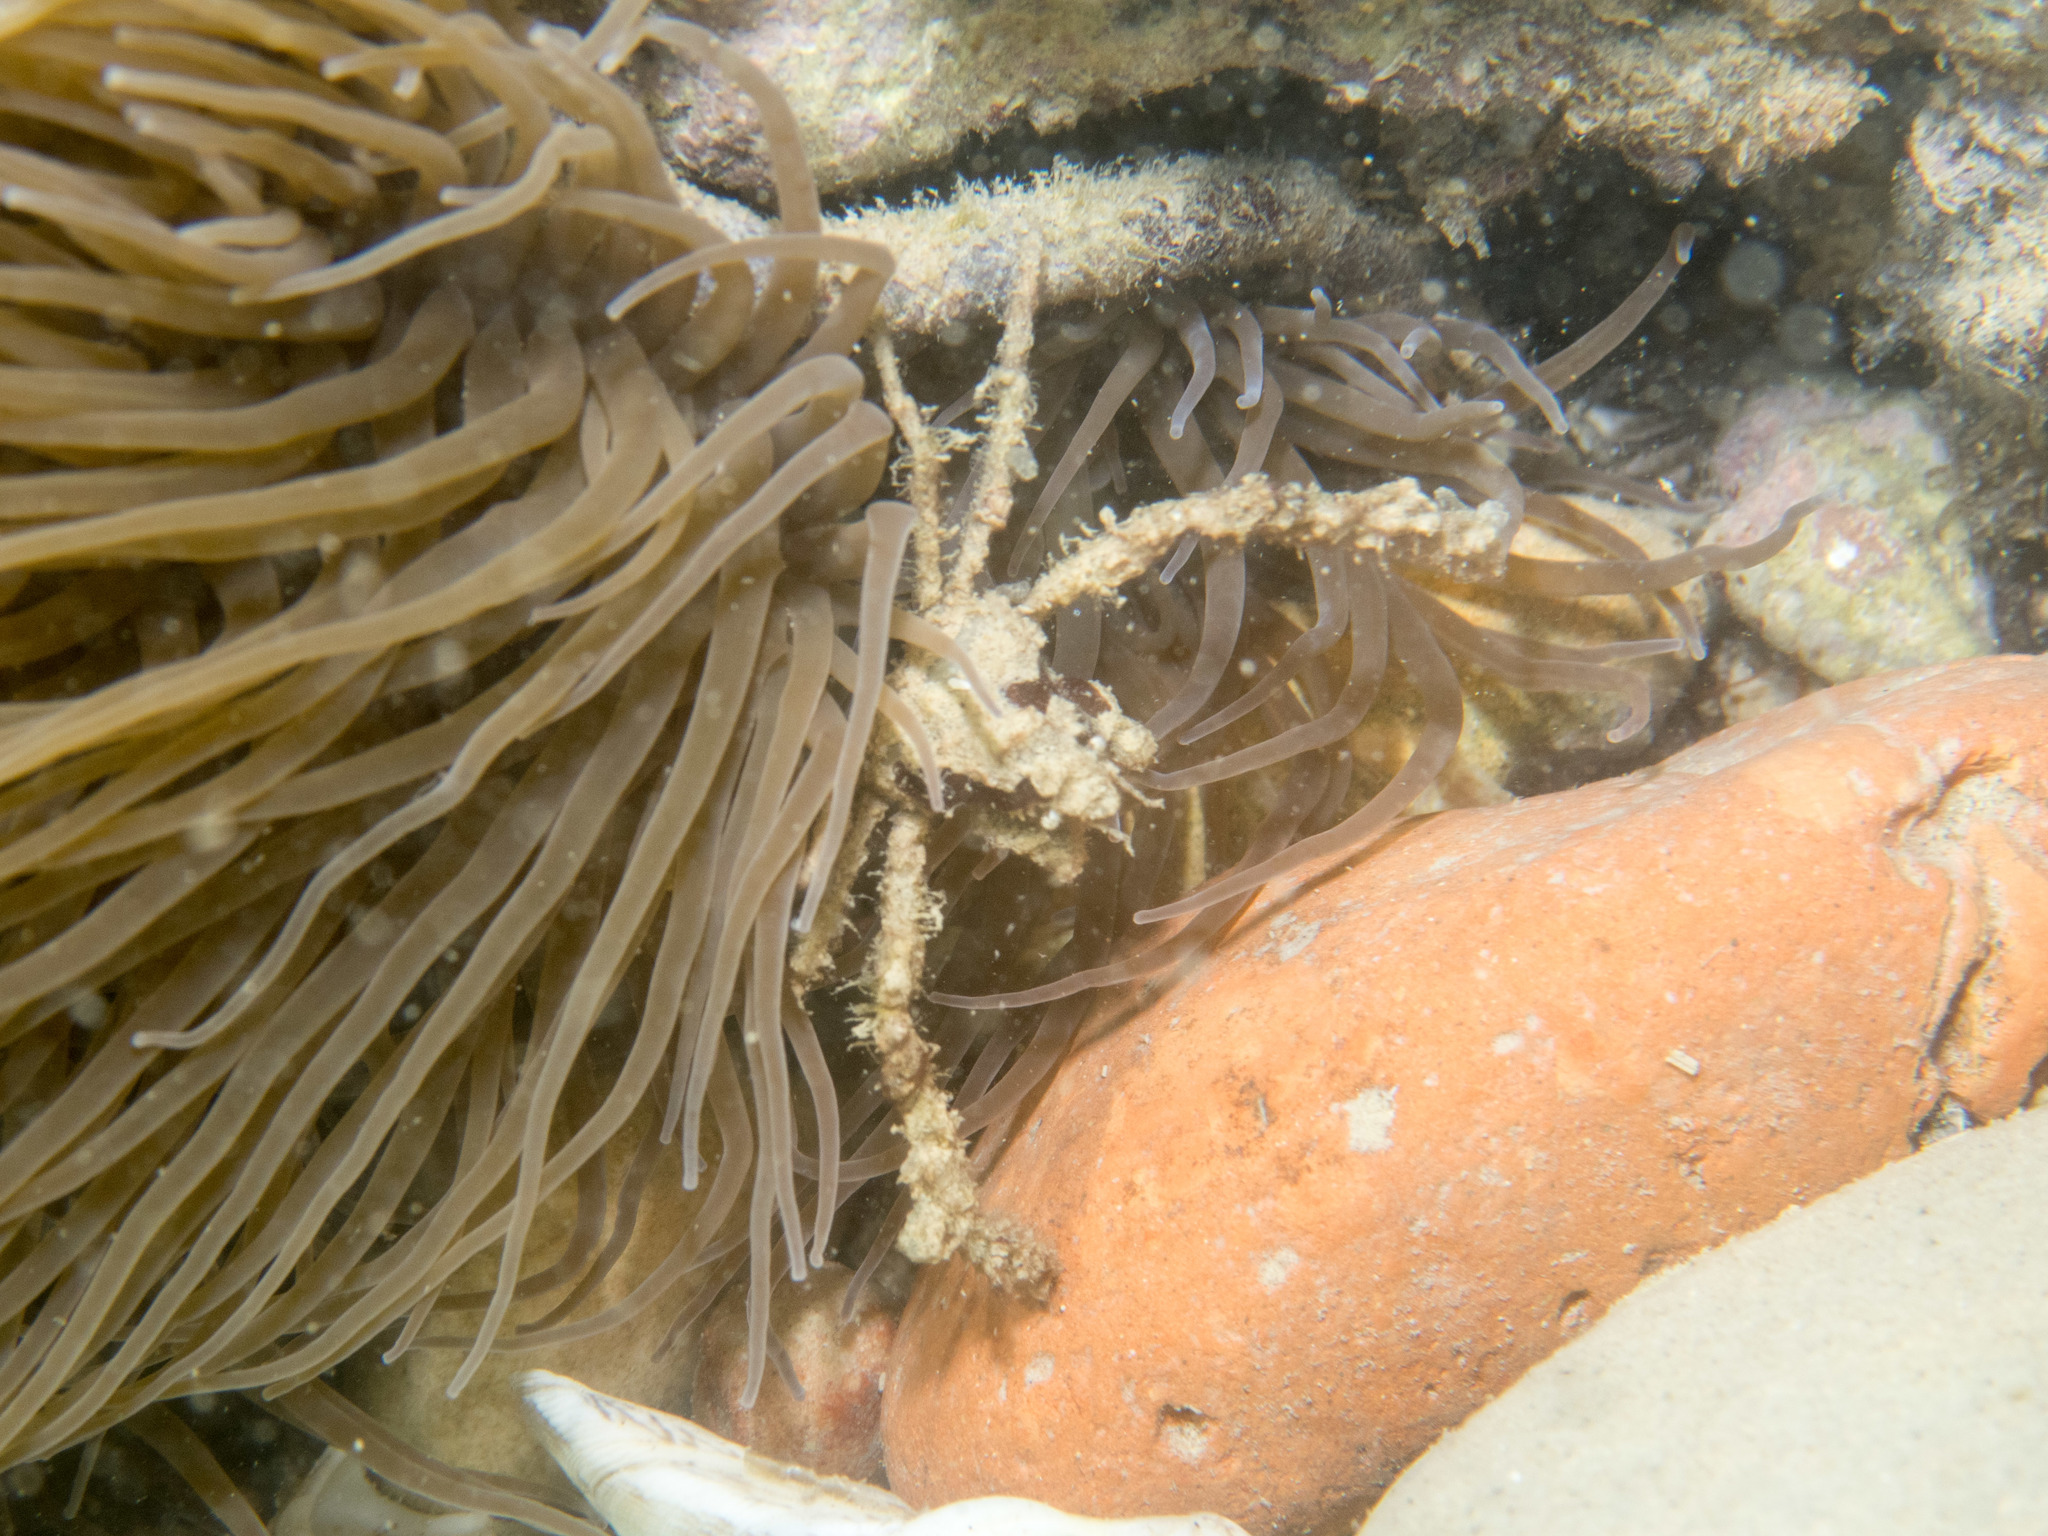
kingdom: Animalia
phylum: Arthropoda
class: Malacostraca
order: Decapoda
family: Inachidae
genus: Inachus
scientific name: Inachus phalangium
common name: Leach's spider crab
